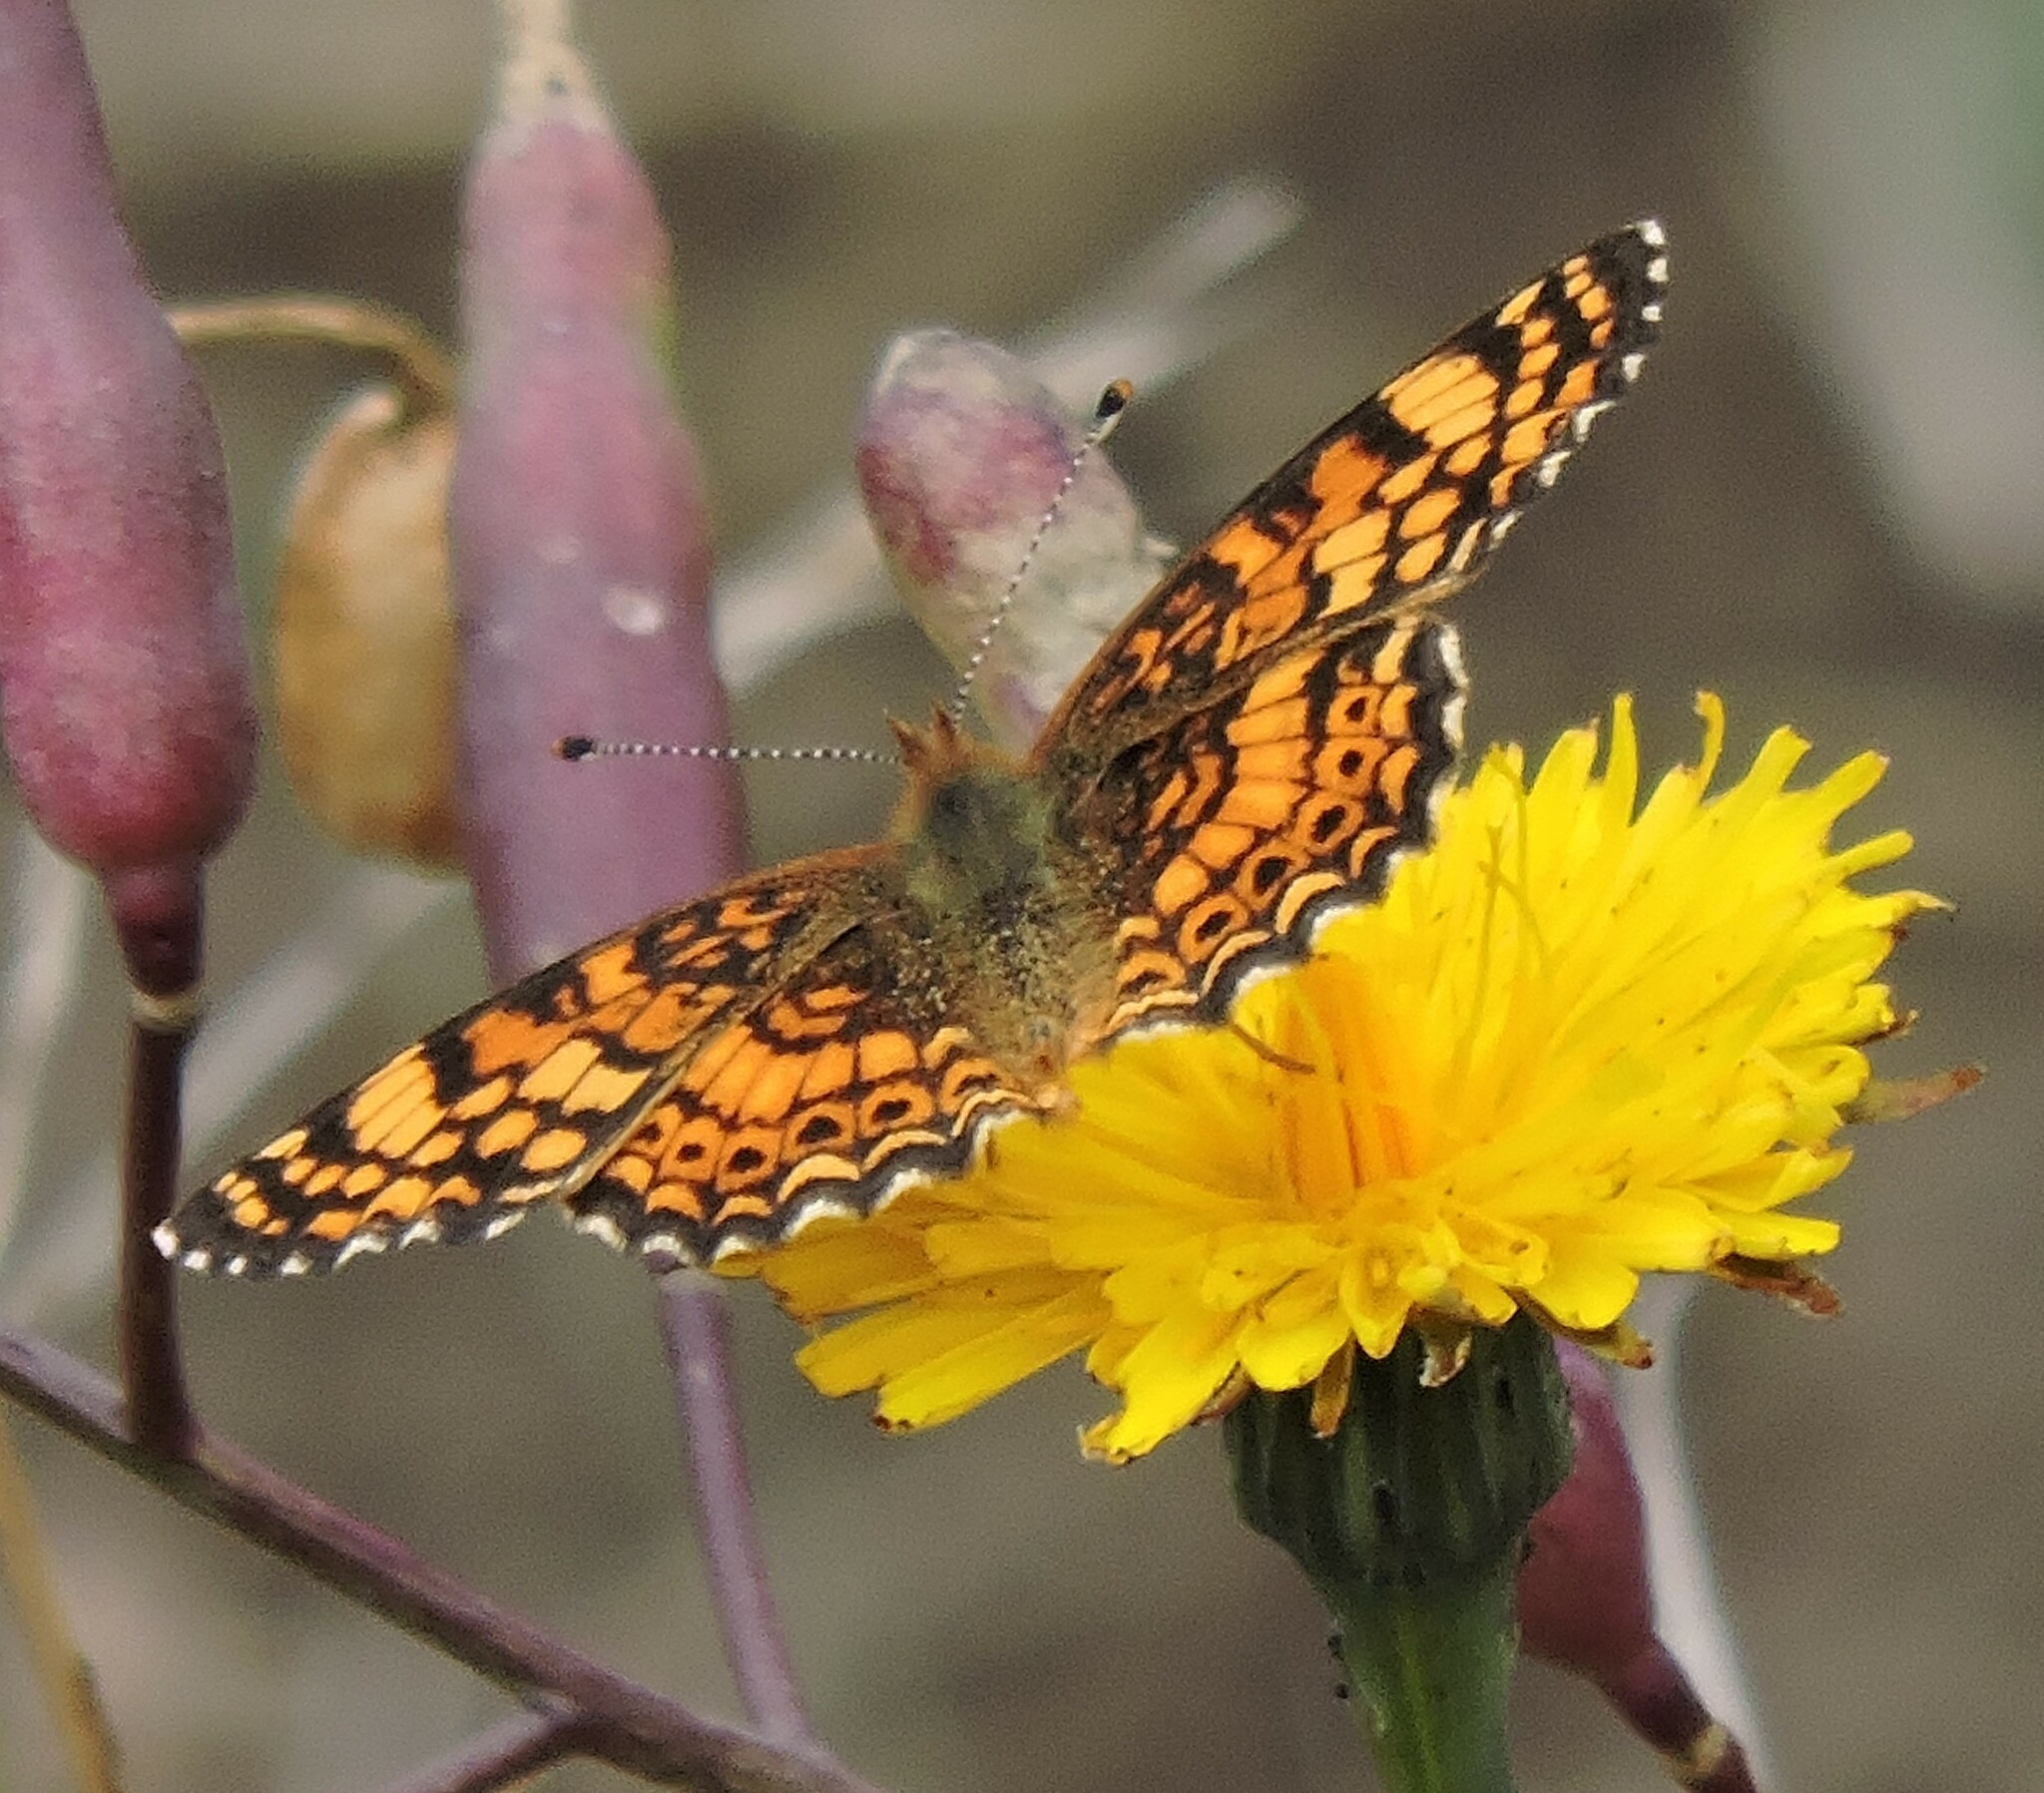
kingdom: Animalia
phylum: Arthropoda
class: Insecta
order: Lepidoptera
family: Nymphalidae
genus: Eresia
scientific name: Eresia aveyrona
